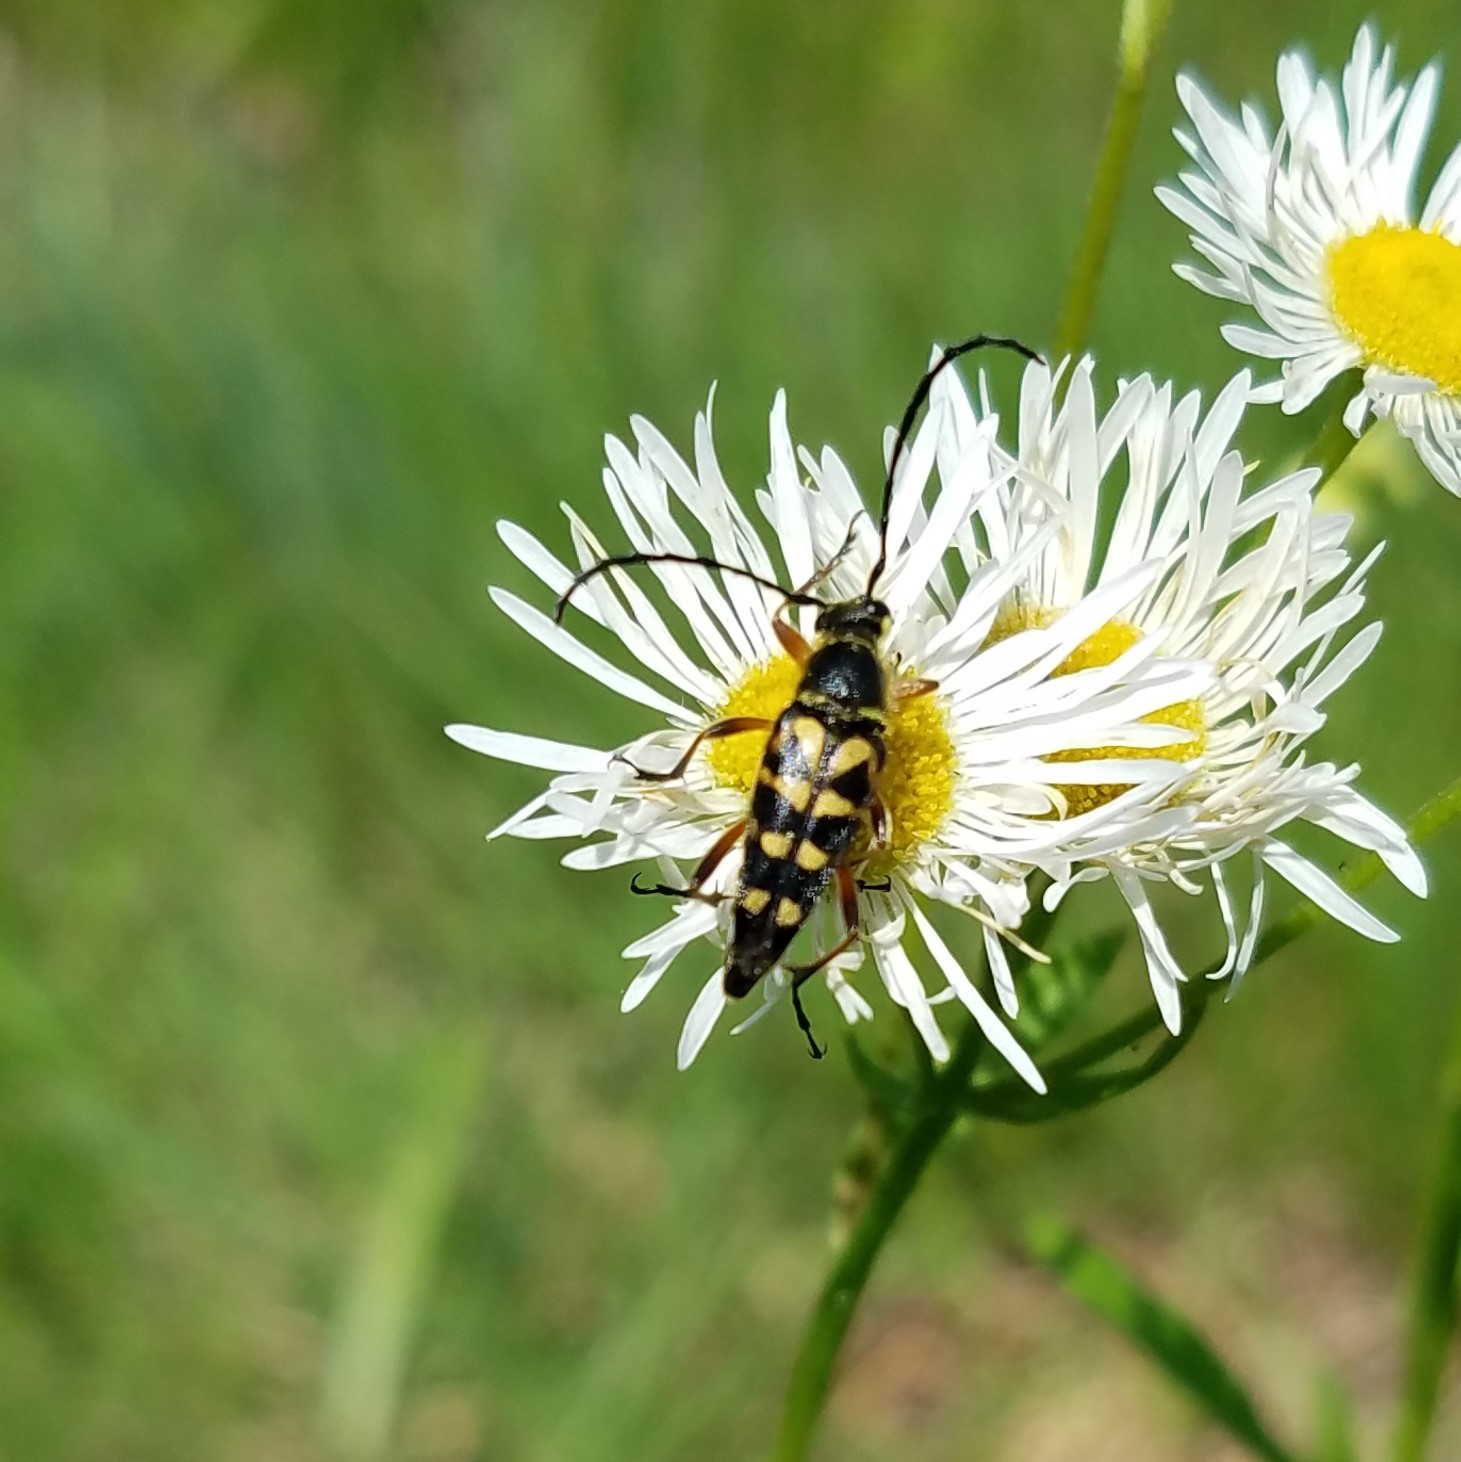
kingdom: Animalia
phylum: Arthropoda
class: Insecta
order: Coleoptera
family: Cerambycidae
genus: Typocerus
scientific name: Typocerus zebra
